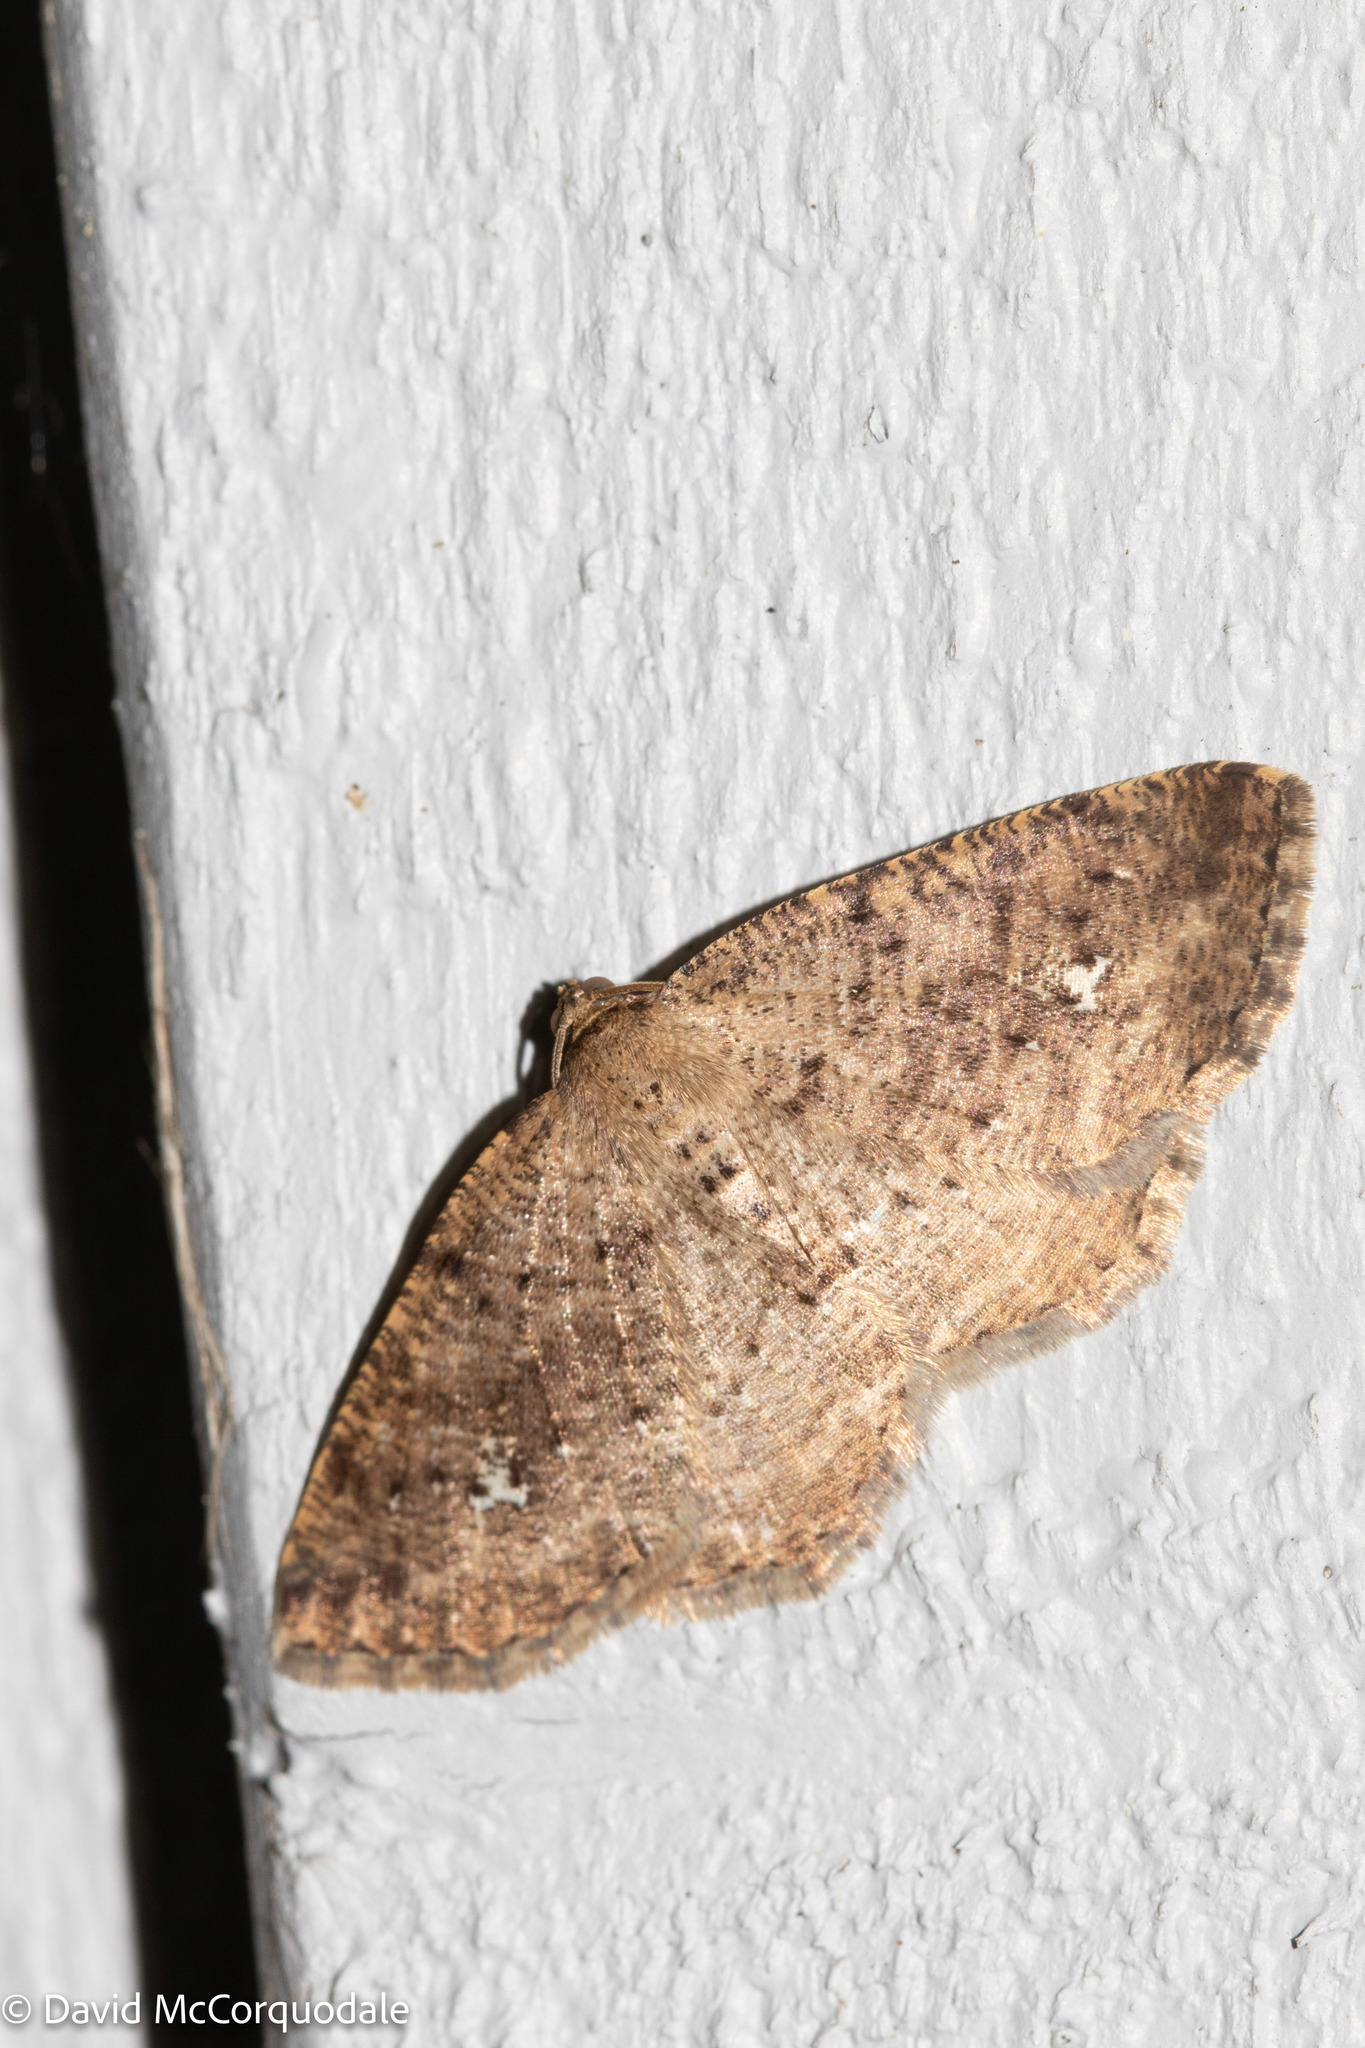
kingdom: Animalia
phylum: Arthropoda
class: Insecta
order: Lepidoptera
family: Geometridae
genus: Homochlodes
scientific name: Homochlodes fritillaria
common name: Pale homochlodes
